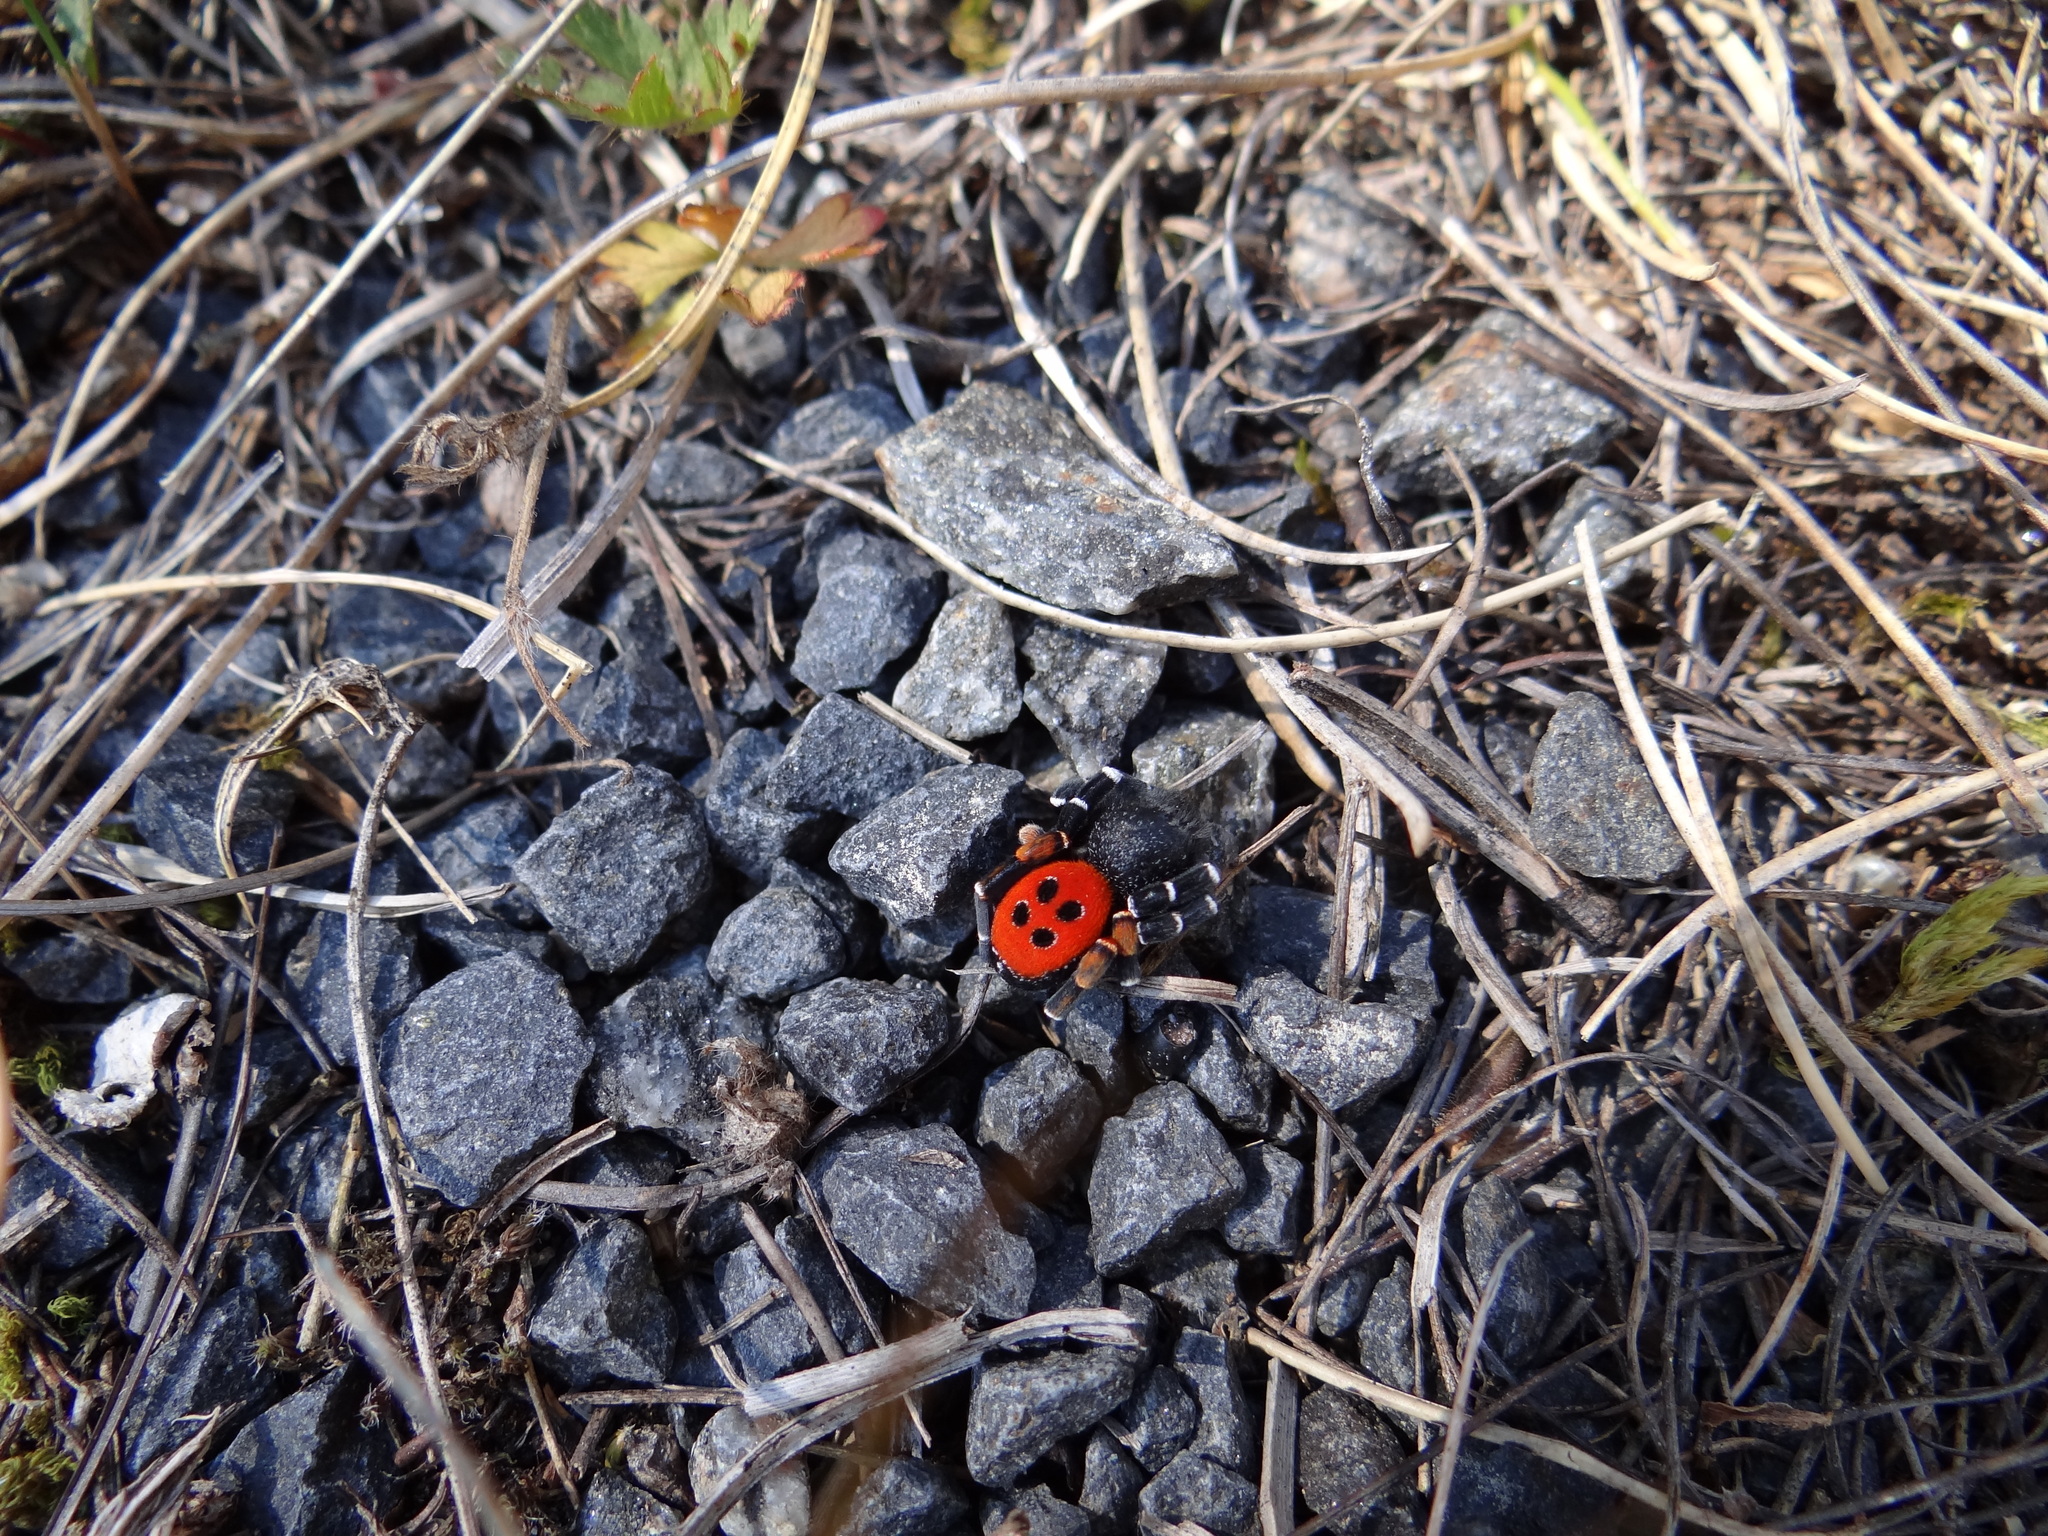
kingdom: Animalia
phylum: Arthropoda
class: Arachnida
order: Araneae
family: Eresidae
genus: Eresus
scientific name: Eresus kollari
